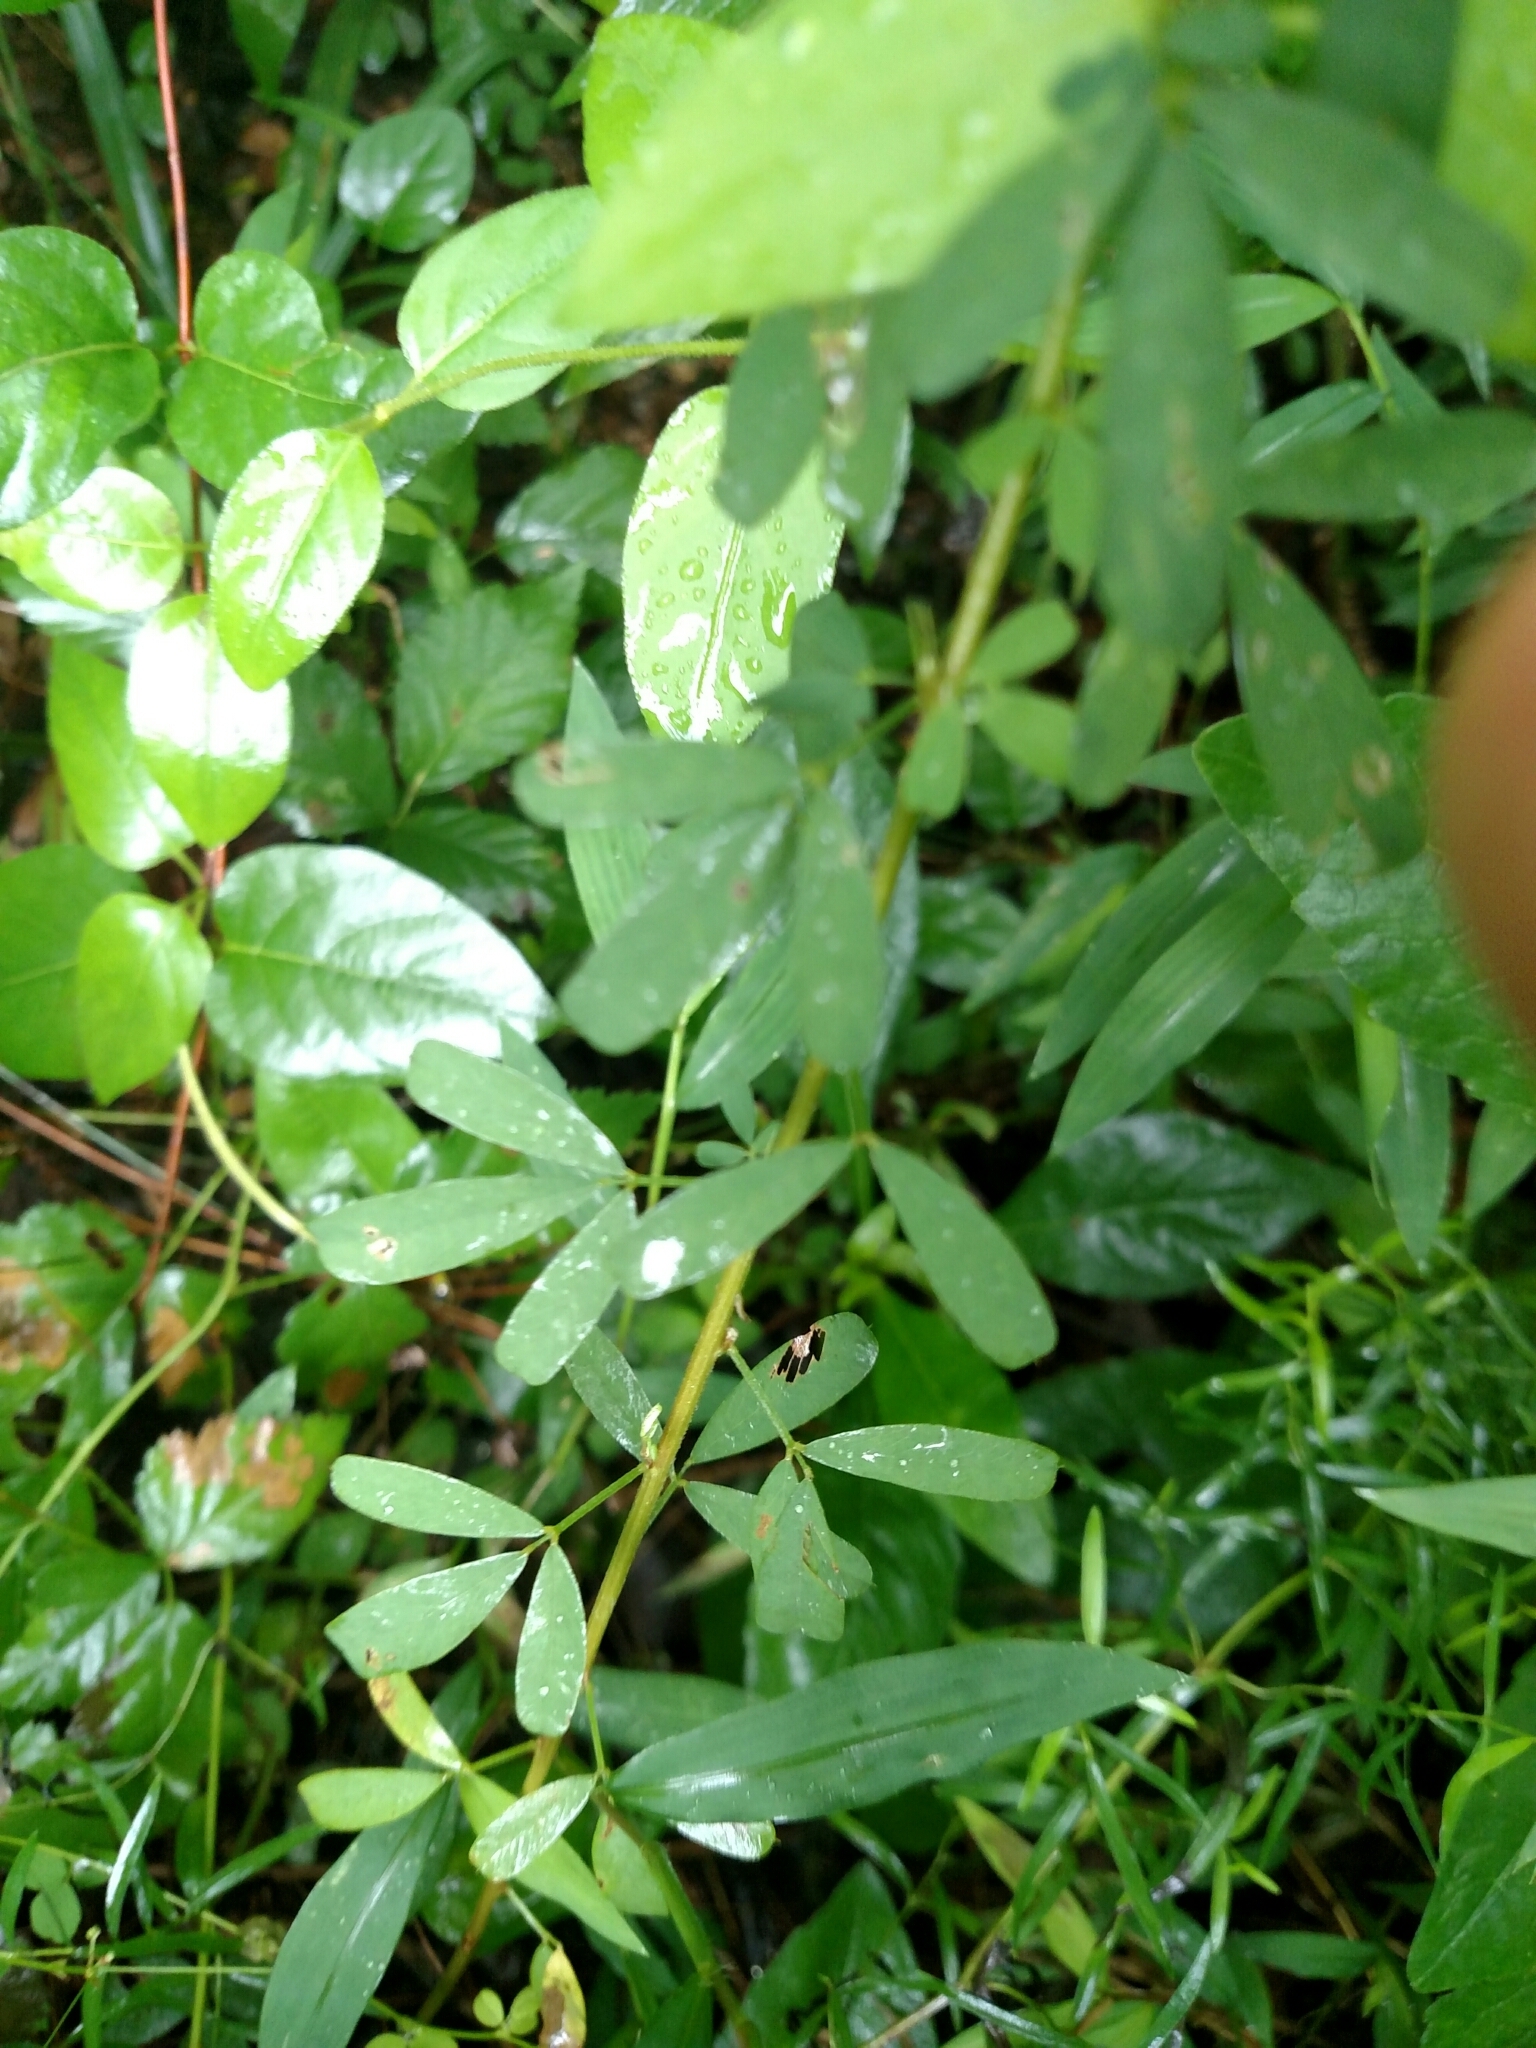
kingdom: Plantae
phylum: Tracheophyta
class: Magnoliopsida
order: Fabales
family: Fabaceae
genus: Lespedeza
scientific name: Lespedeza cuneata
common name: Chinese bush-clover
